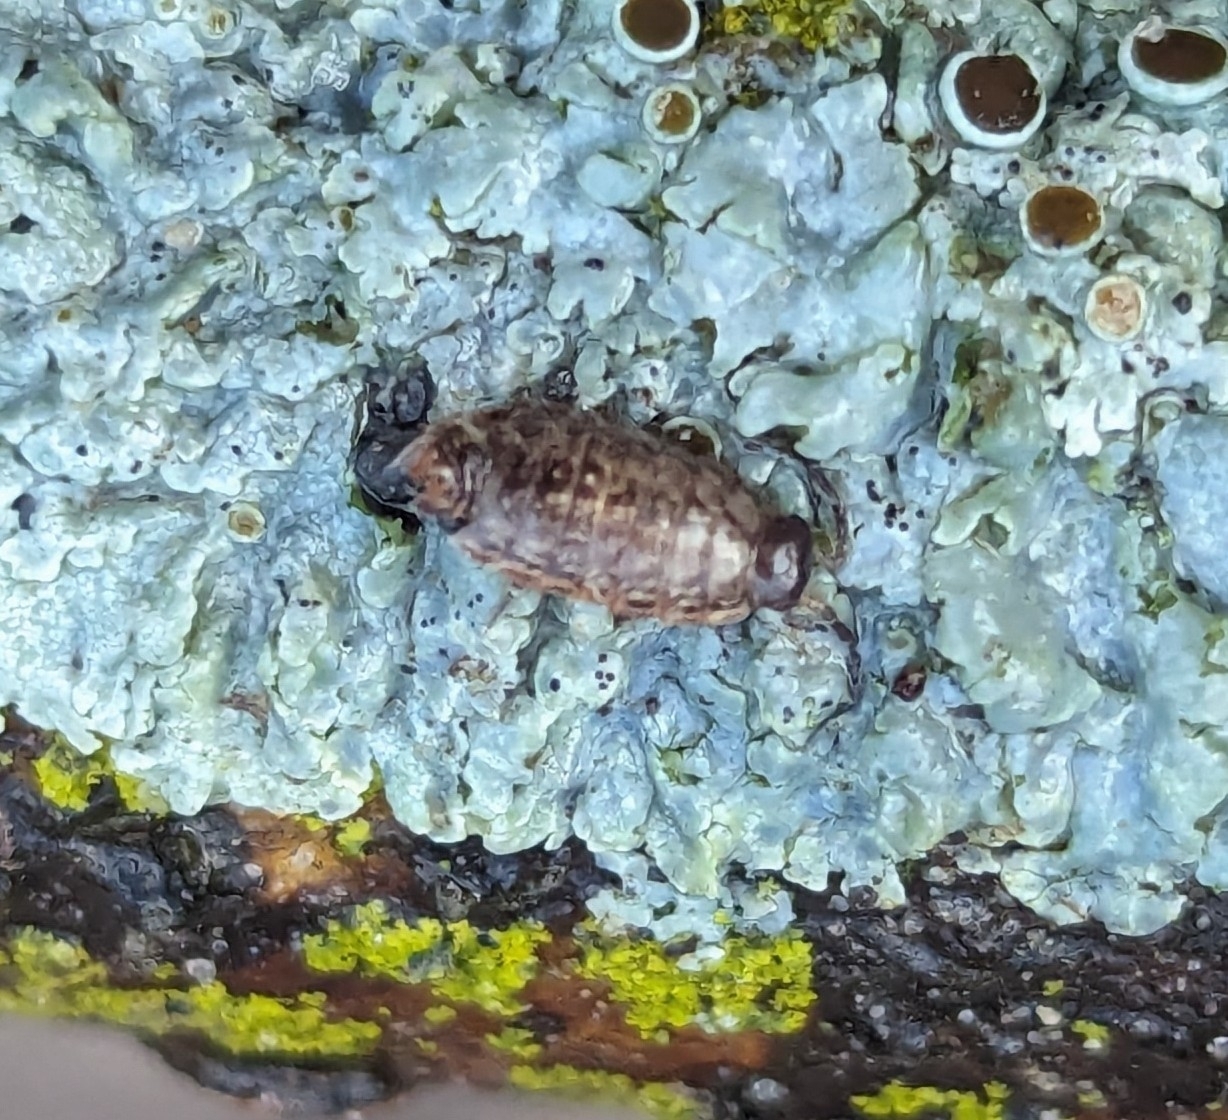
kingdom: Animalia
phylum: Arthropoda
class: Malacostraca
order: Isopoda
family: Philosciidae
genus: Philoscia
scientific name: Philoscia muscorum
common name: Common striped woodlouse
